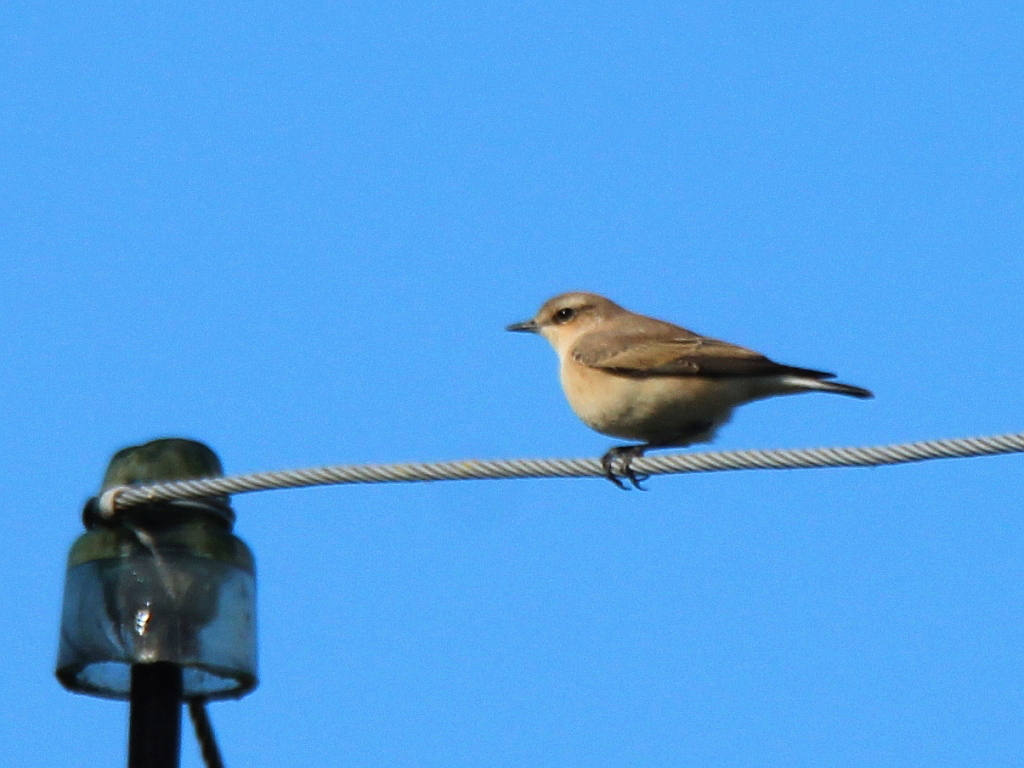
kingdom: Animalia
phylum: Chordata
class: Aves
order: Passeriformes
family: Muscicapidae
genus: Oenanthe
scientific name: Oenanthe oenanthe
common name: Northern wheatear
